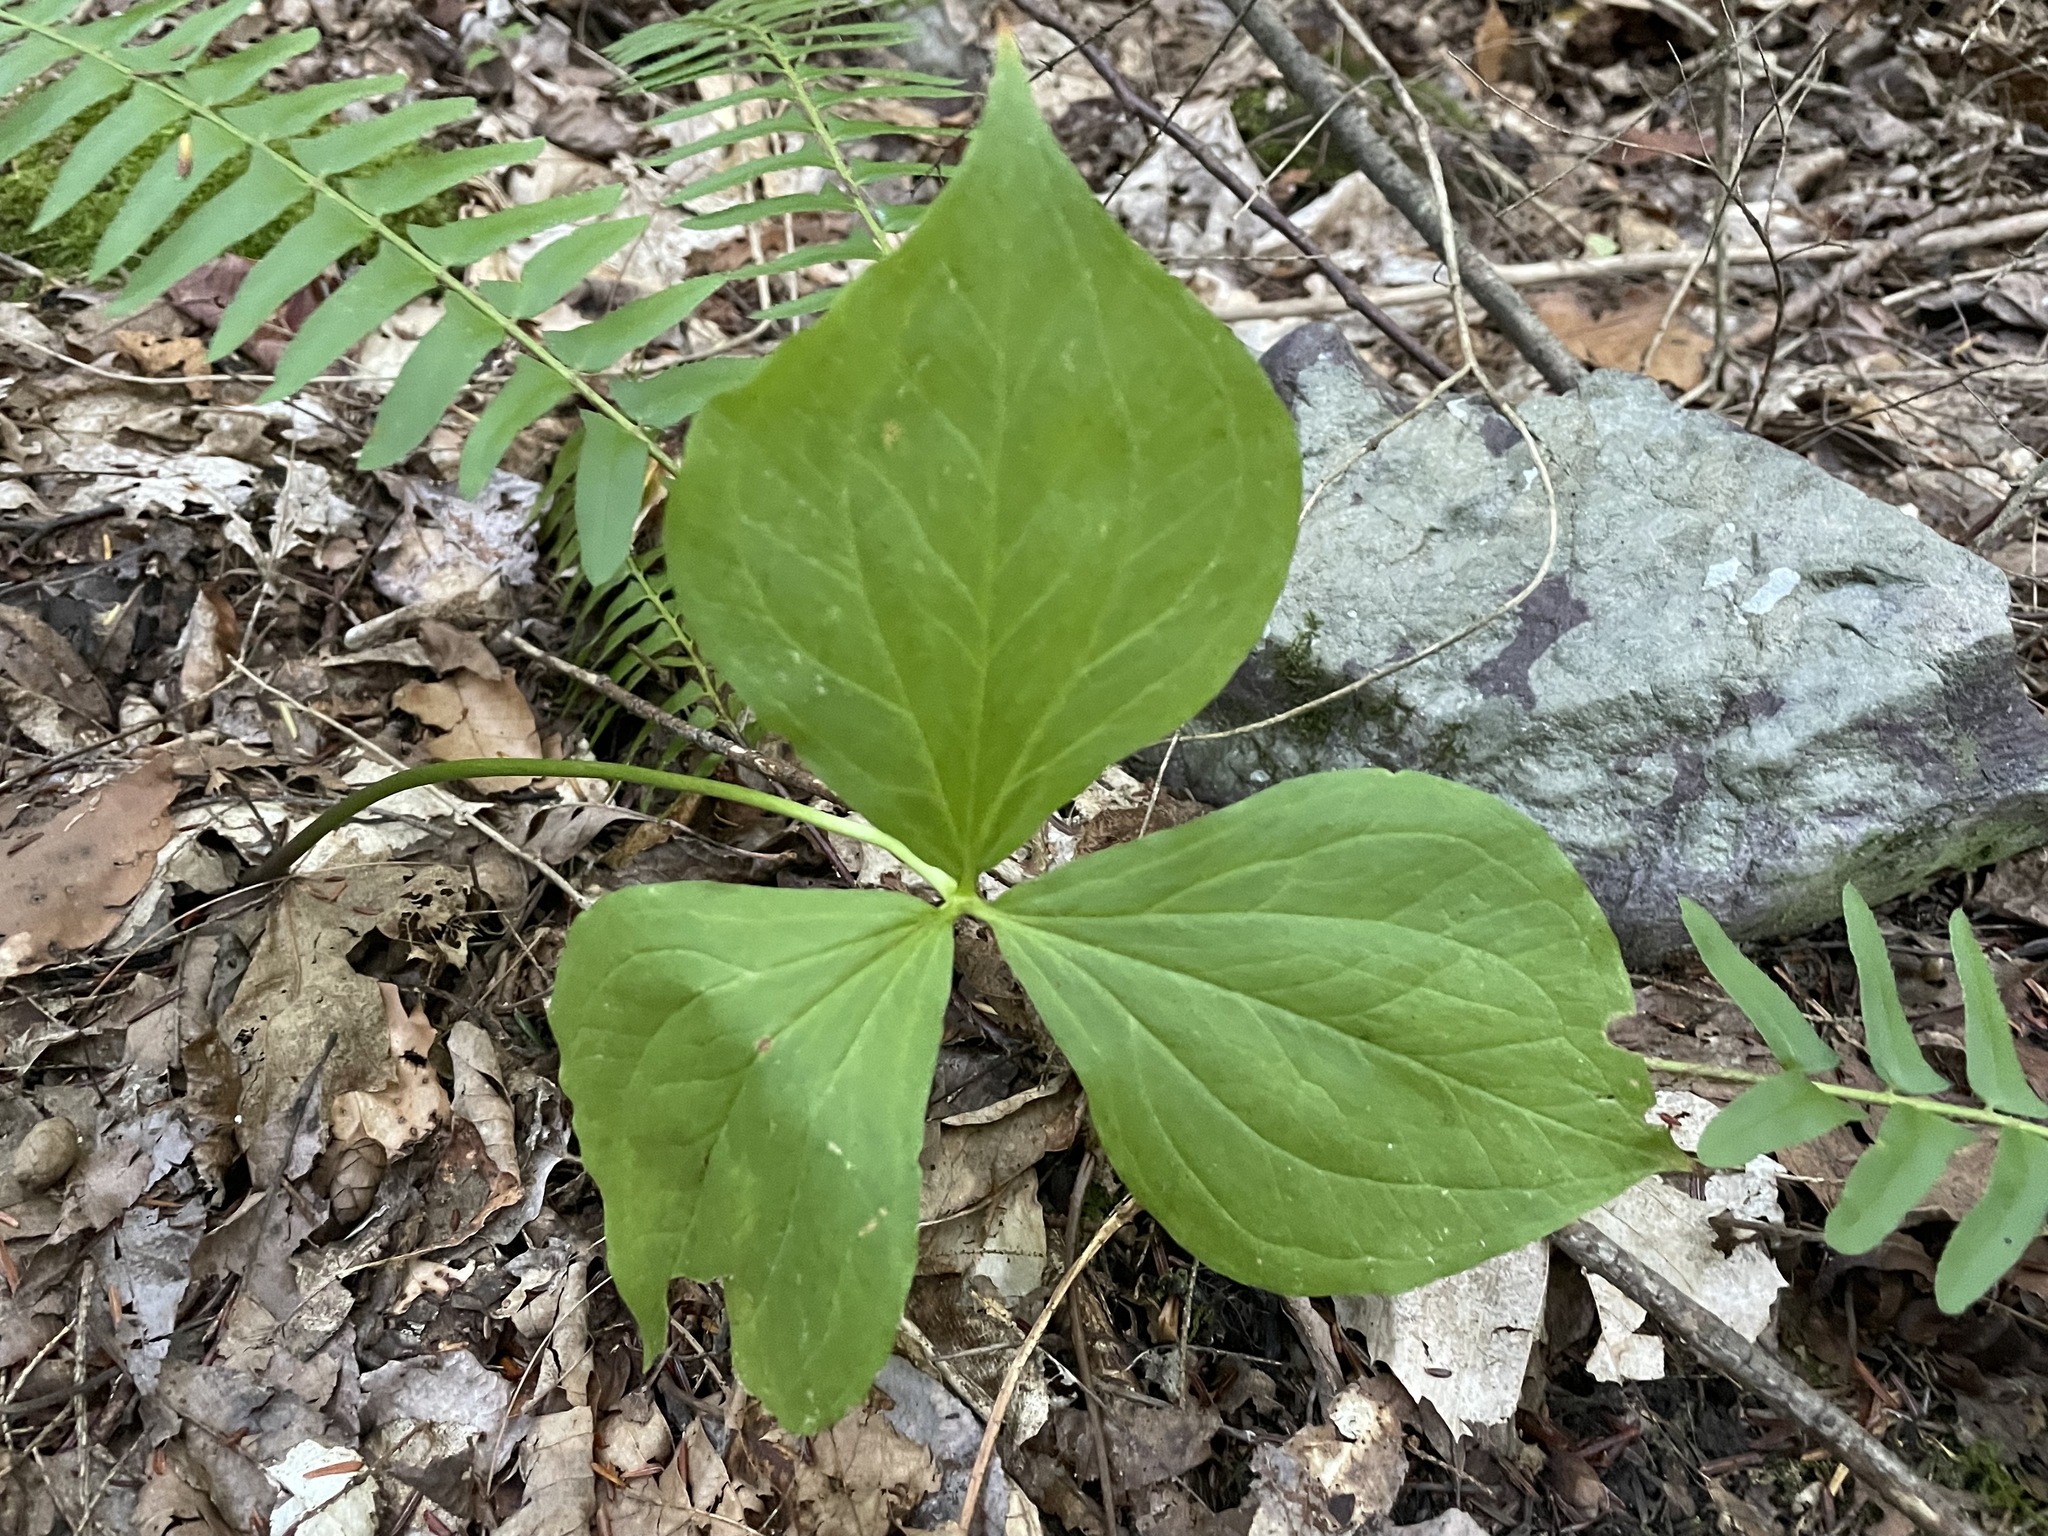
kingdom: Plantae
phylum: Tracheophyta
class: Liliopsida
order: Liliales
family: Melanthiaceae
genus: Trillium
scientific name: Trillium grandiflorum
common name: Great white trillium
